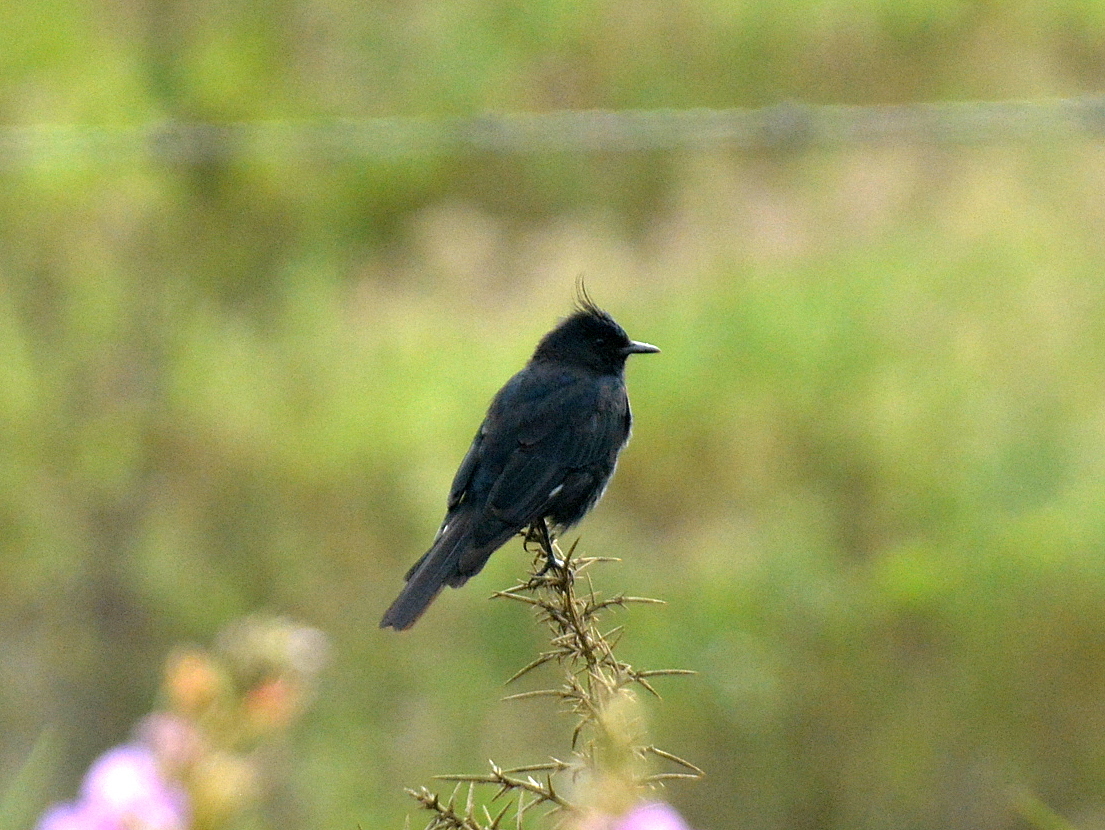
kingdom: Animalia
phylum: Chordata
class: Aves
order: Passeriformes
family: Tyrannidae
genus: Knipolegus
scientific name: Knipolegus lophotes
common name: Crested black tyrant
